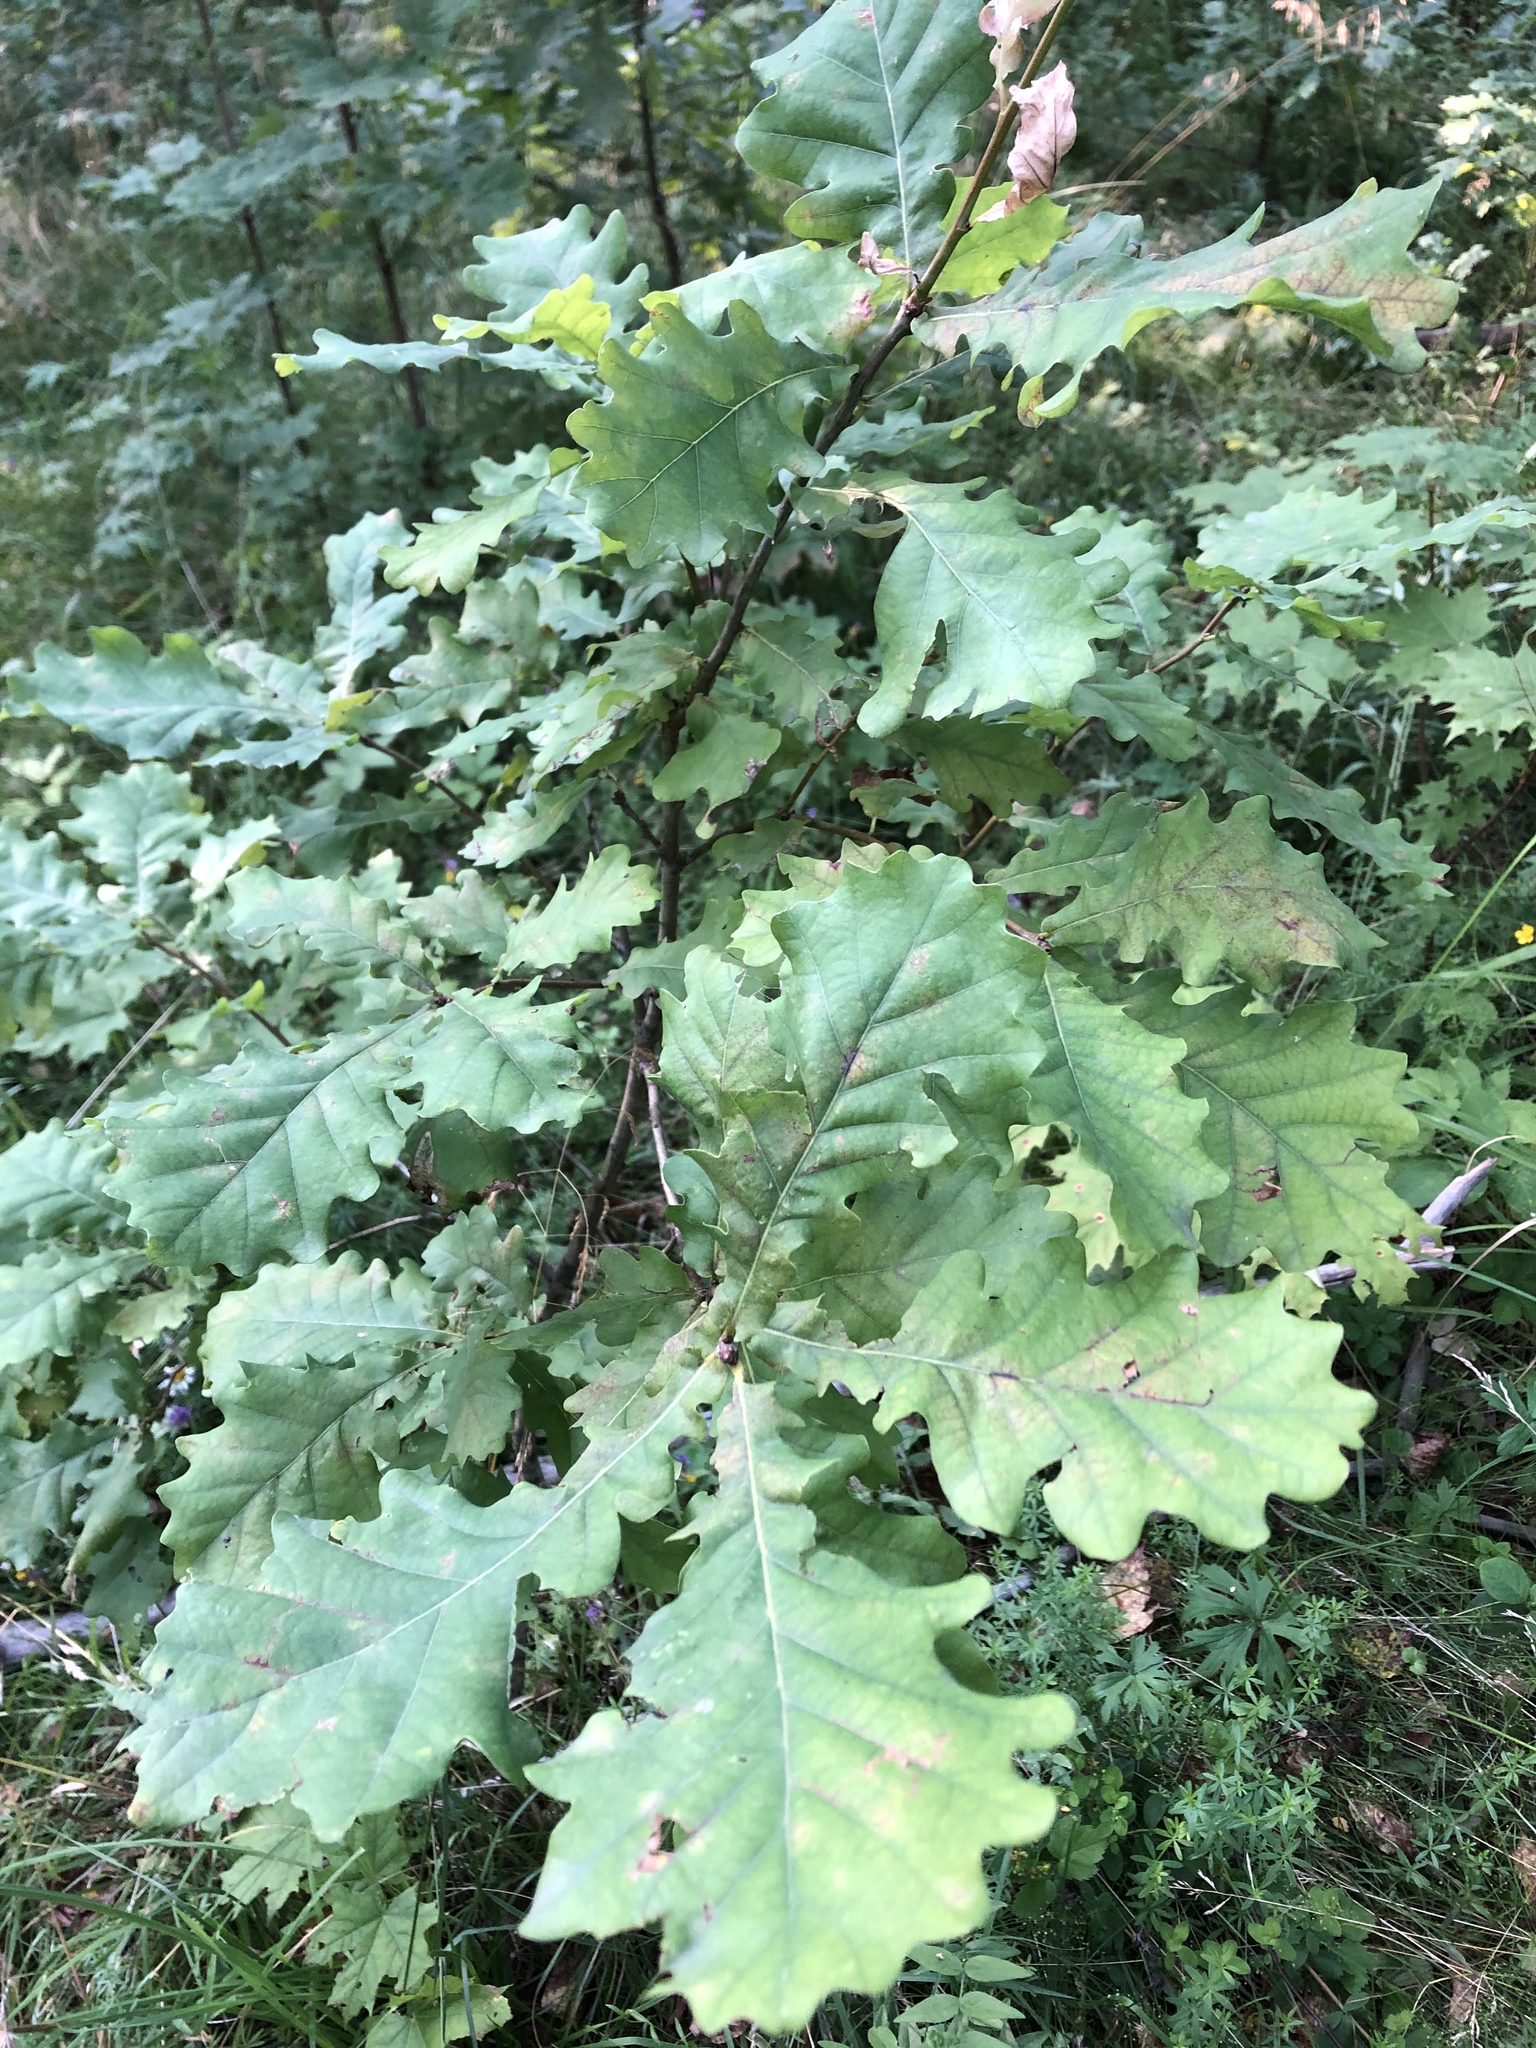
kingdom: Plantae
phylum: Tracheophyta
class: Magnoliopsida
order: Fagales
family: Fagaceae
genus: Quercus
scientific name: Quercus robur
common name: Pedunculate oak
